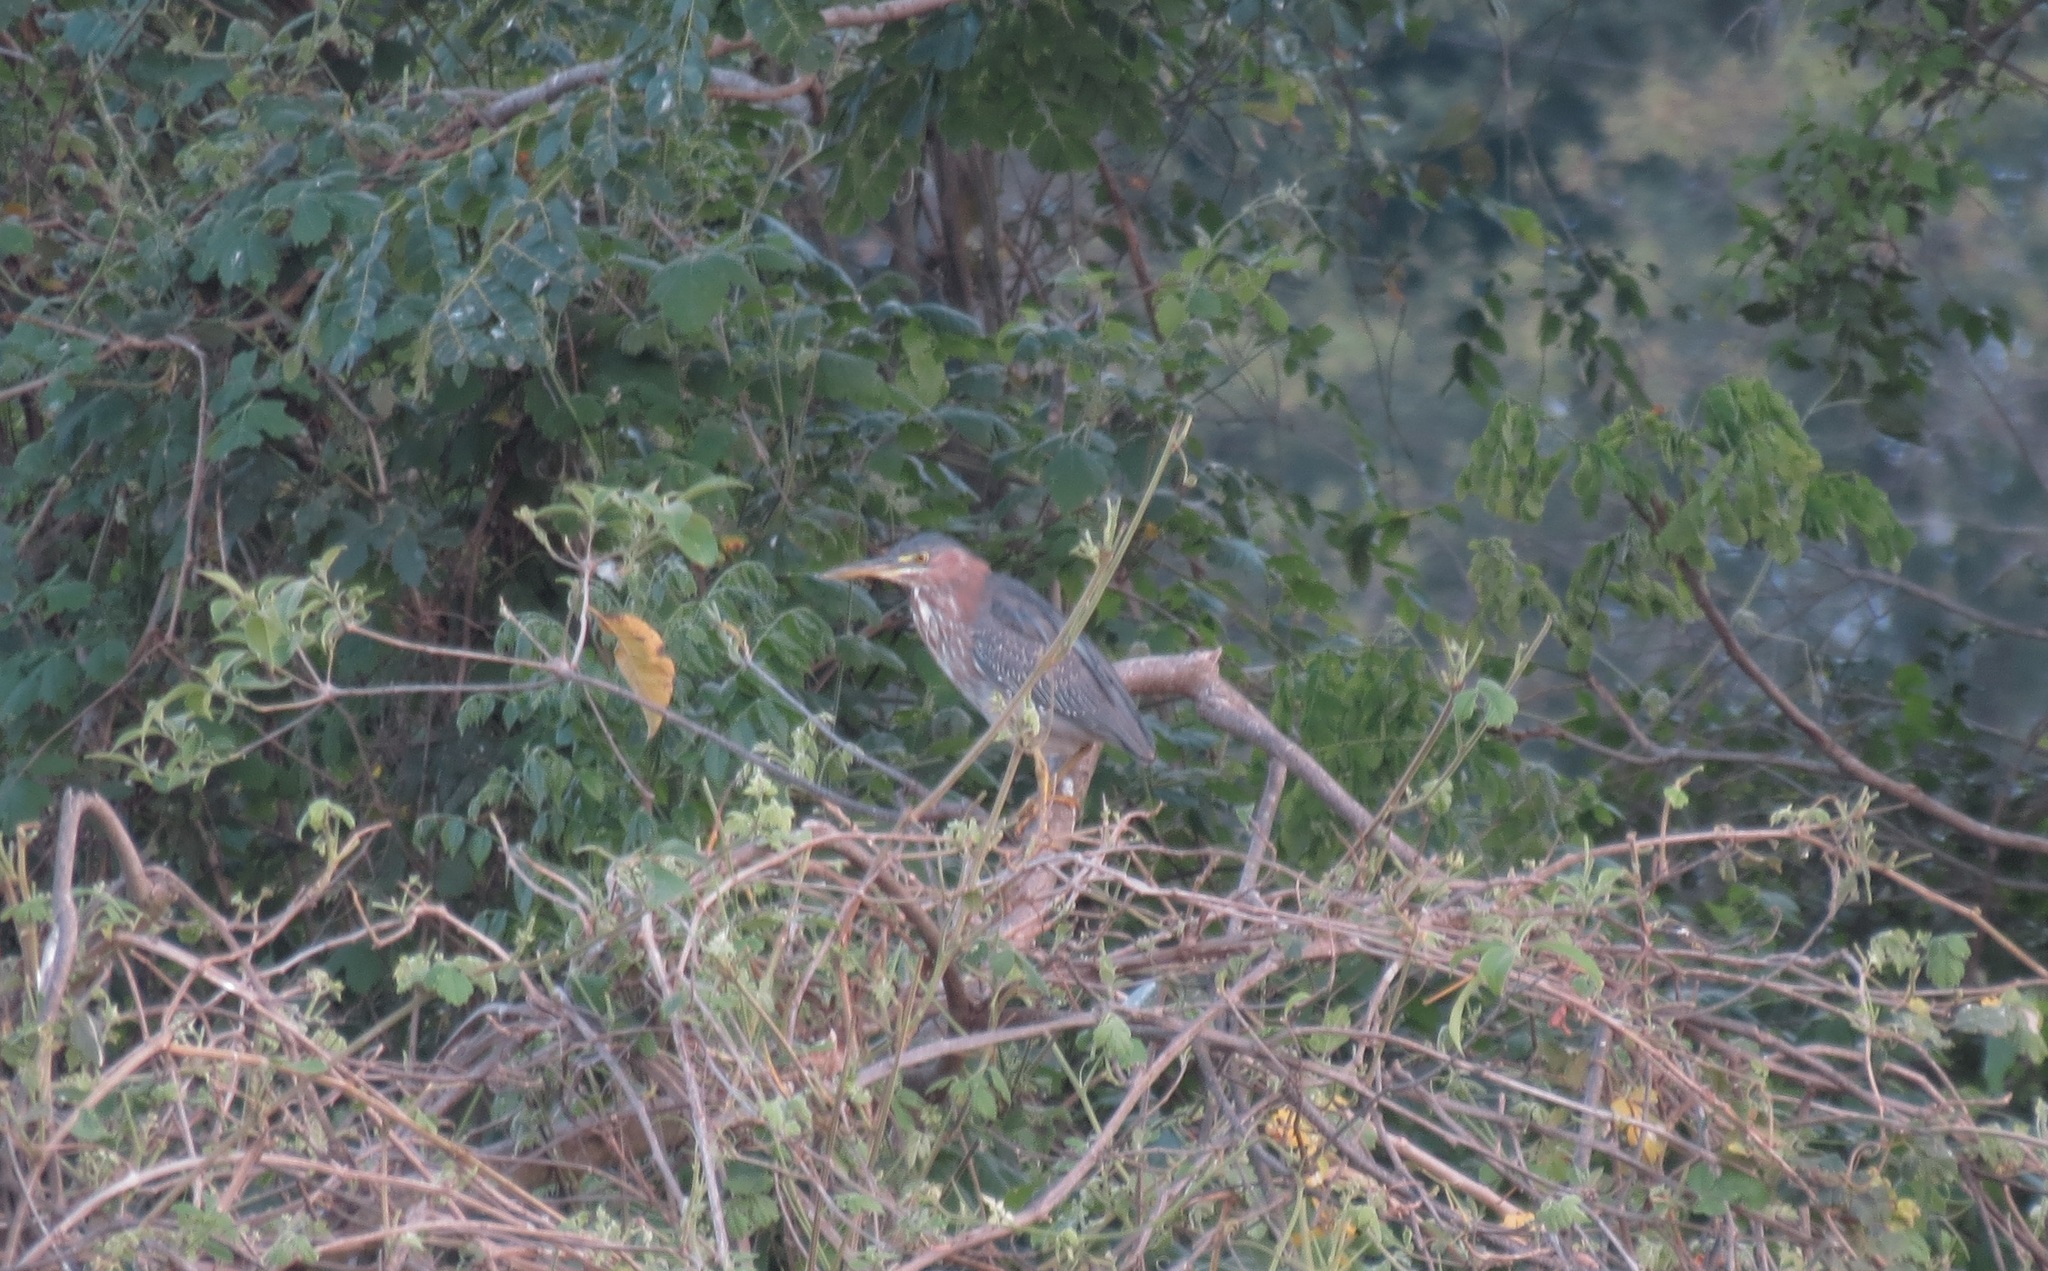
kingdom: Animalia
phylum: Chordata
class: Aves
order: Pelecaniformes
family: Ardeidae
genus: Butorides
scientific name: Butorides virescens
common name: Green heron
